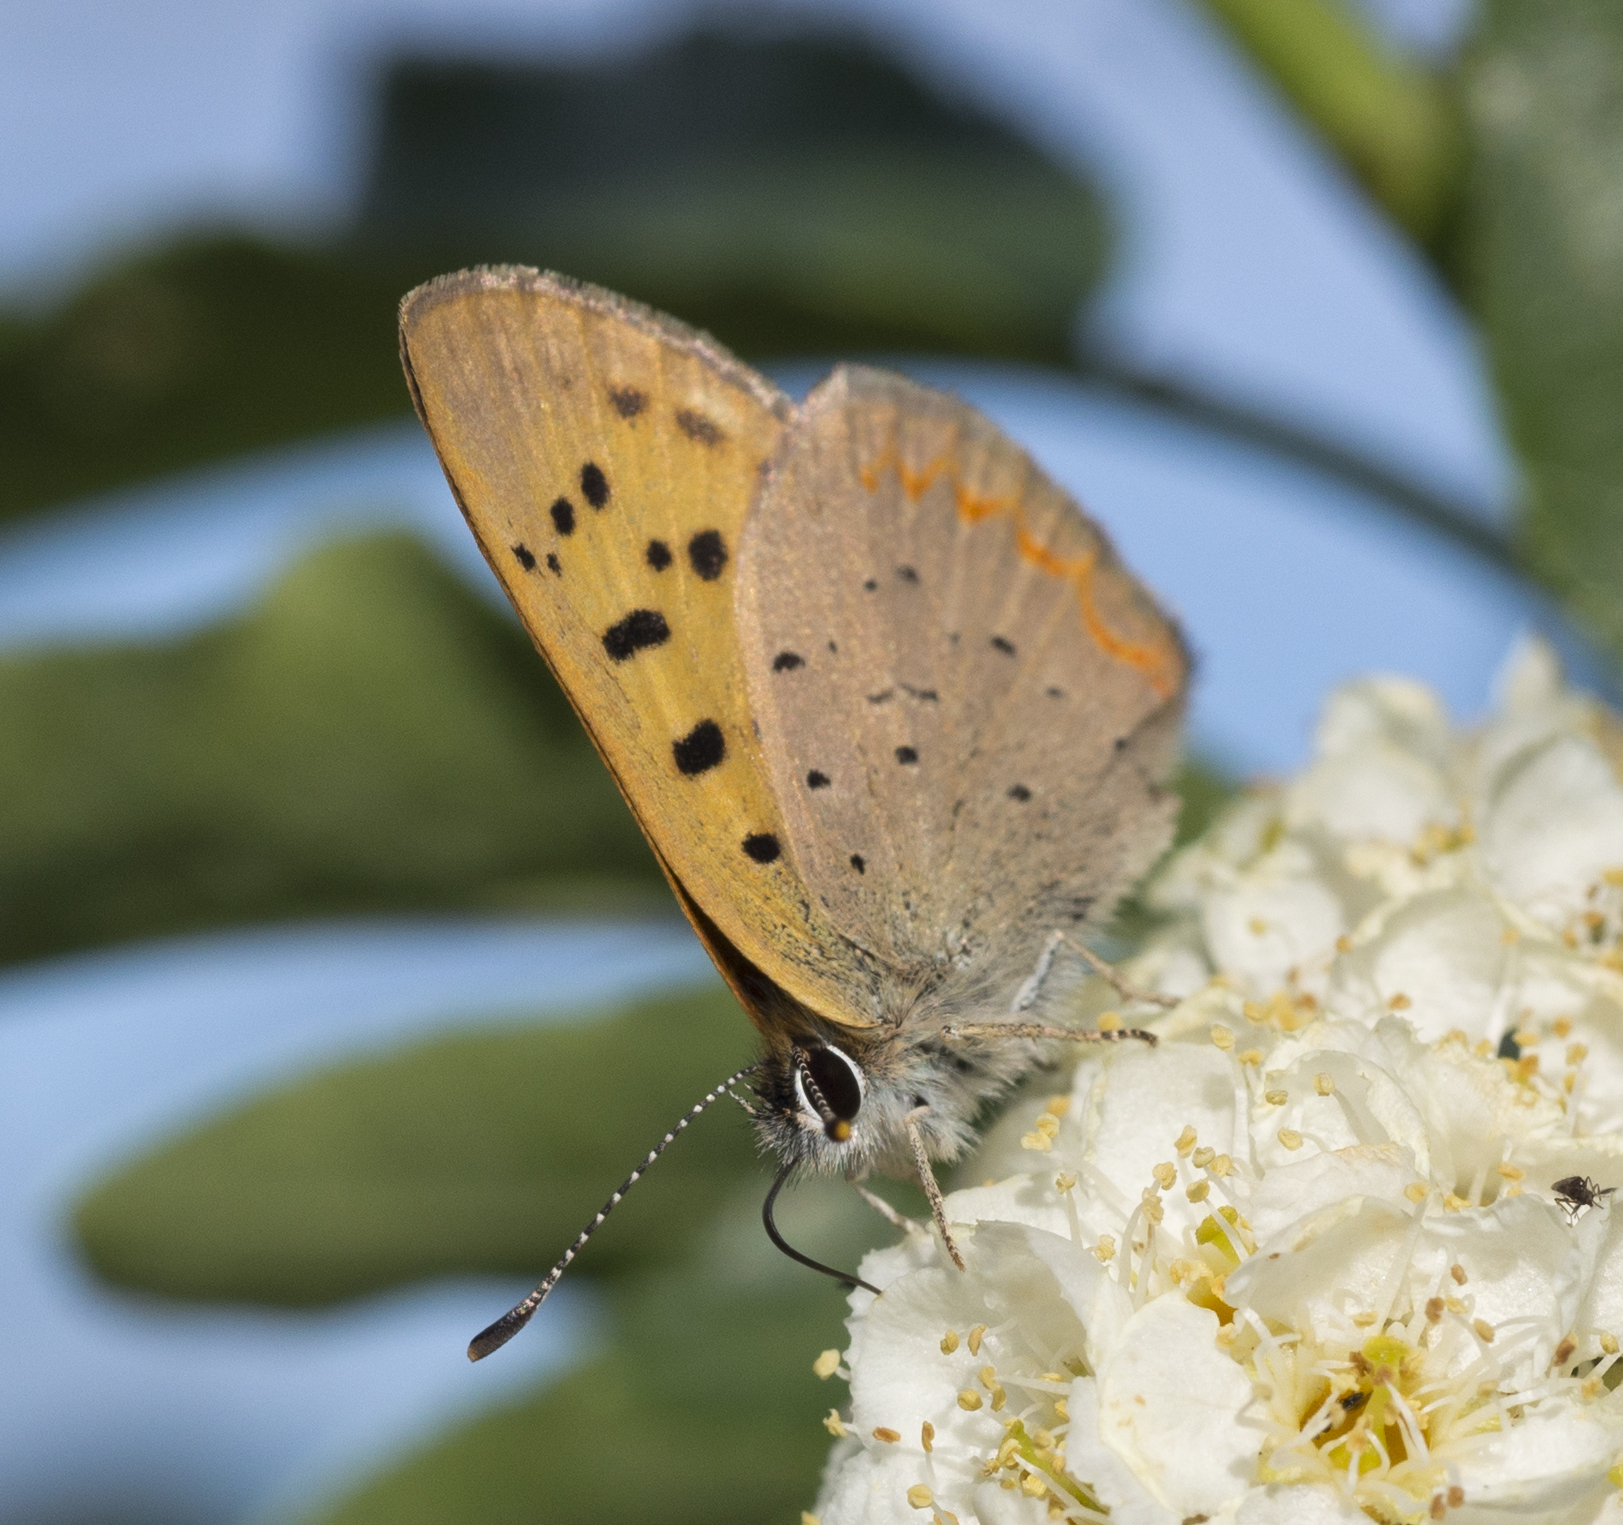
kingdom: Animalia
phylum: Arthropoda
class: Insecta
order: Lepidoptera
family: Lycaenidae
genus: Tharsalea
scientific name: Tharsalea helloides
